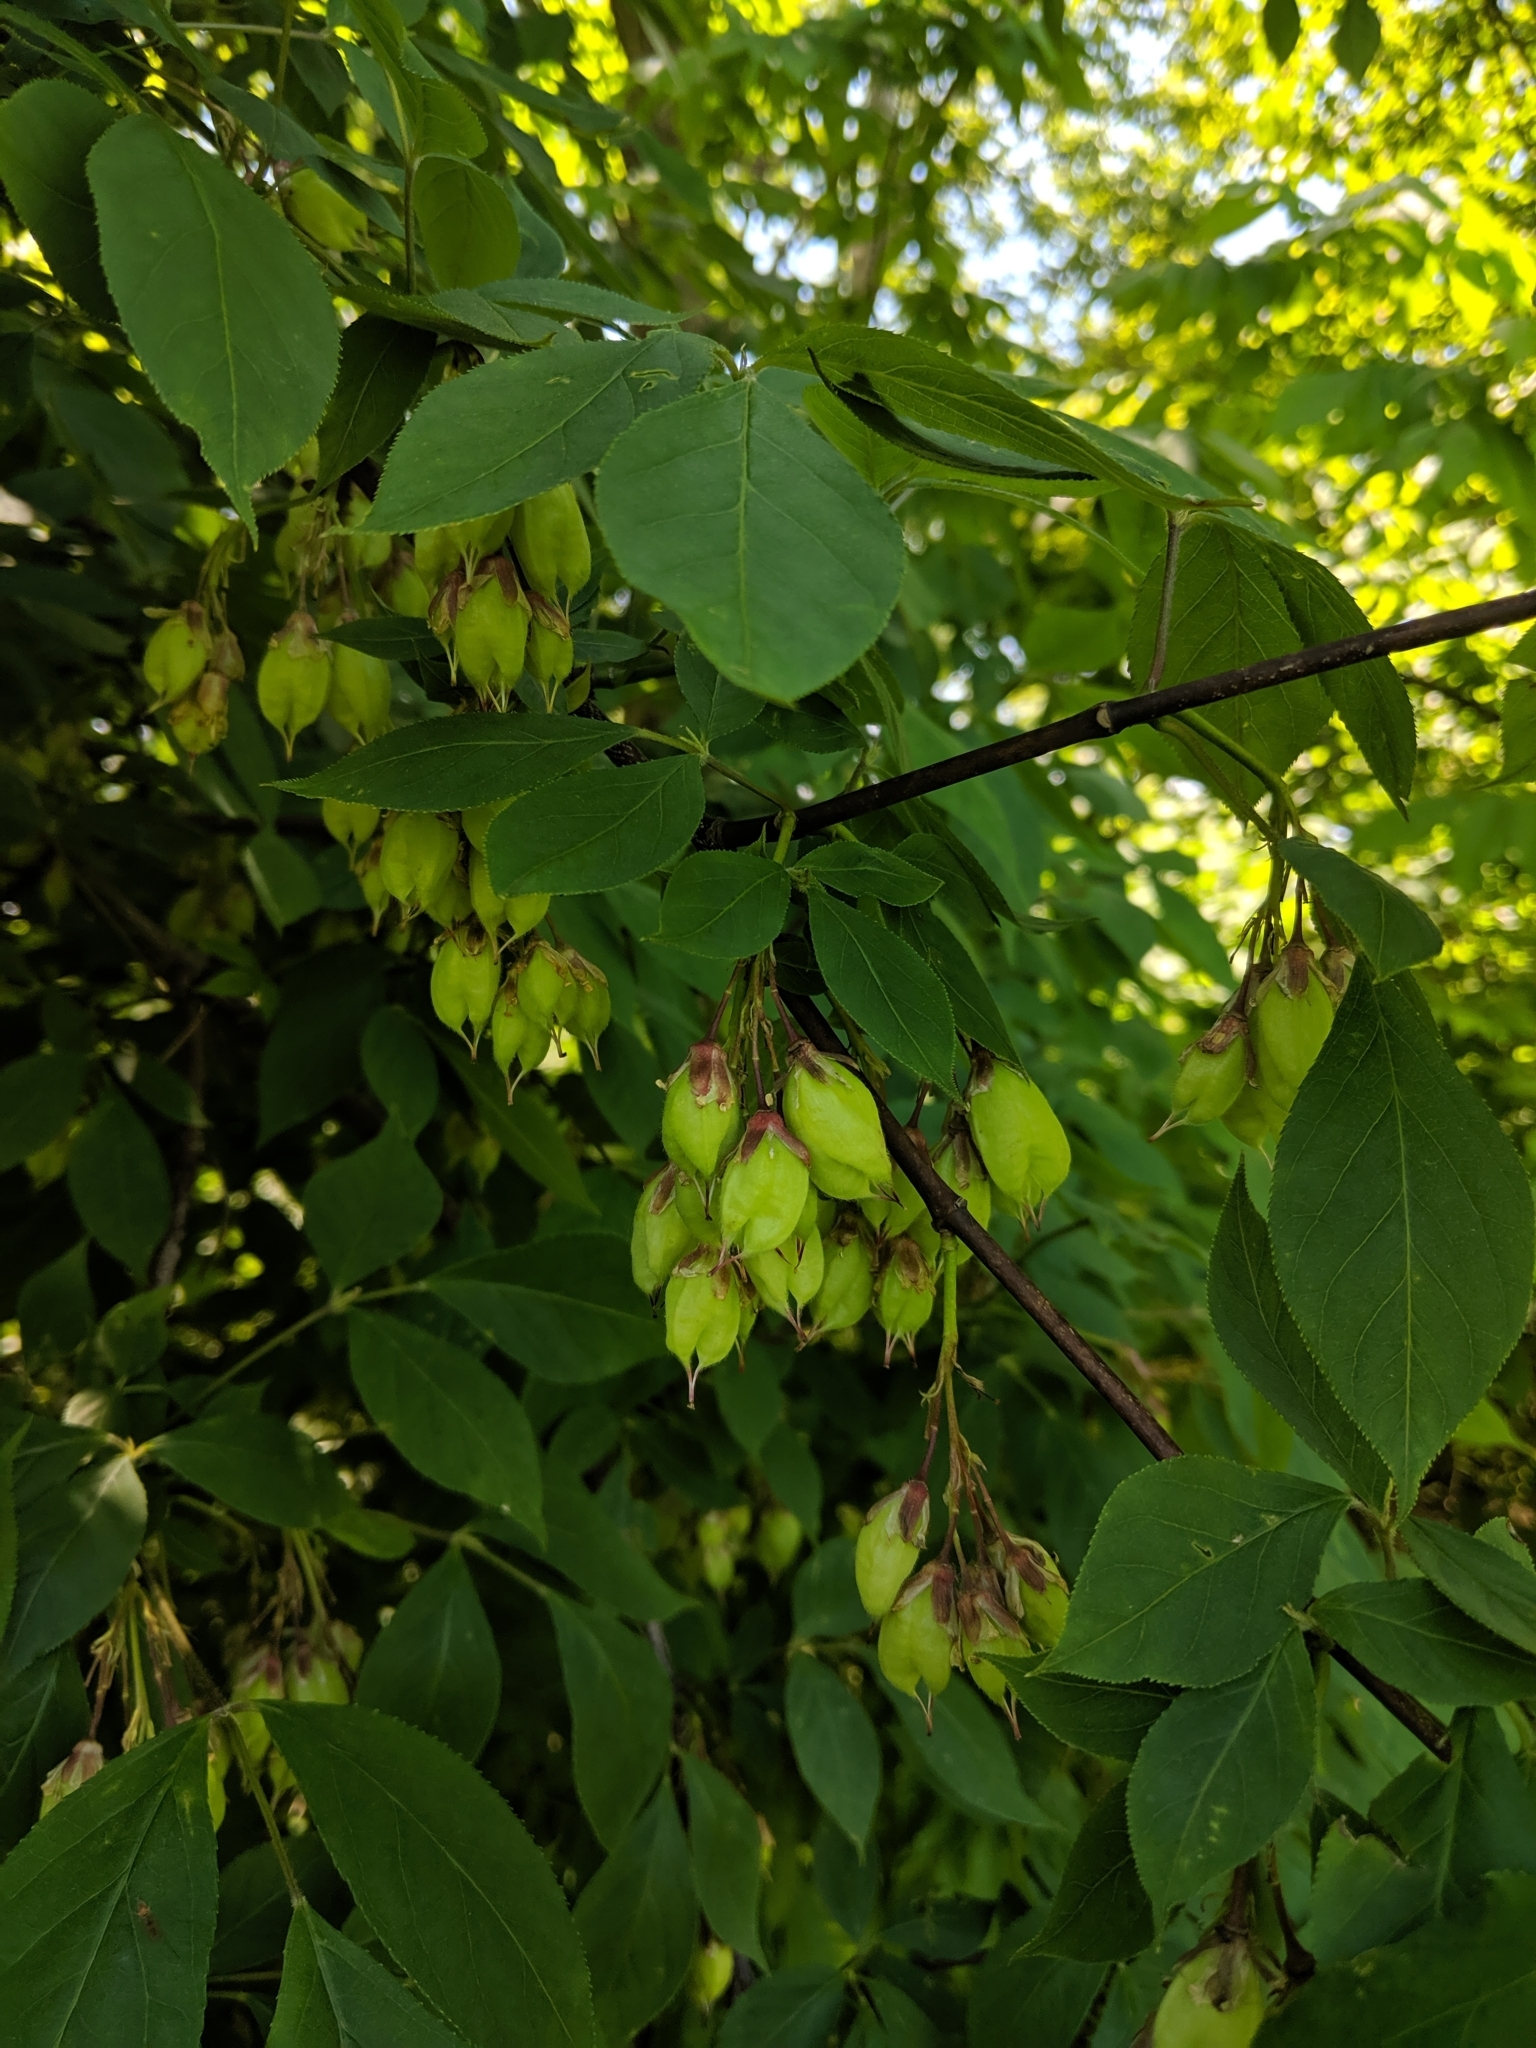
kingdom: Plantae
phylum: Tracheophyta
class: Magnoliopsida
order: Crossosomatales
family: Staphyleaceae
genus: Staphylea
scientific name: Staphylea trifolia
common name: American bladdernut
